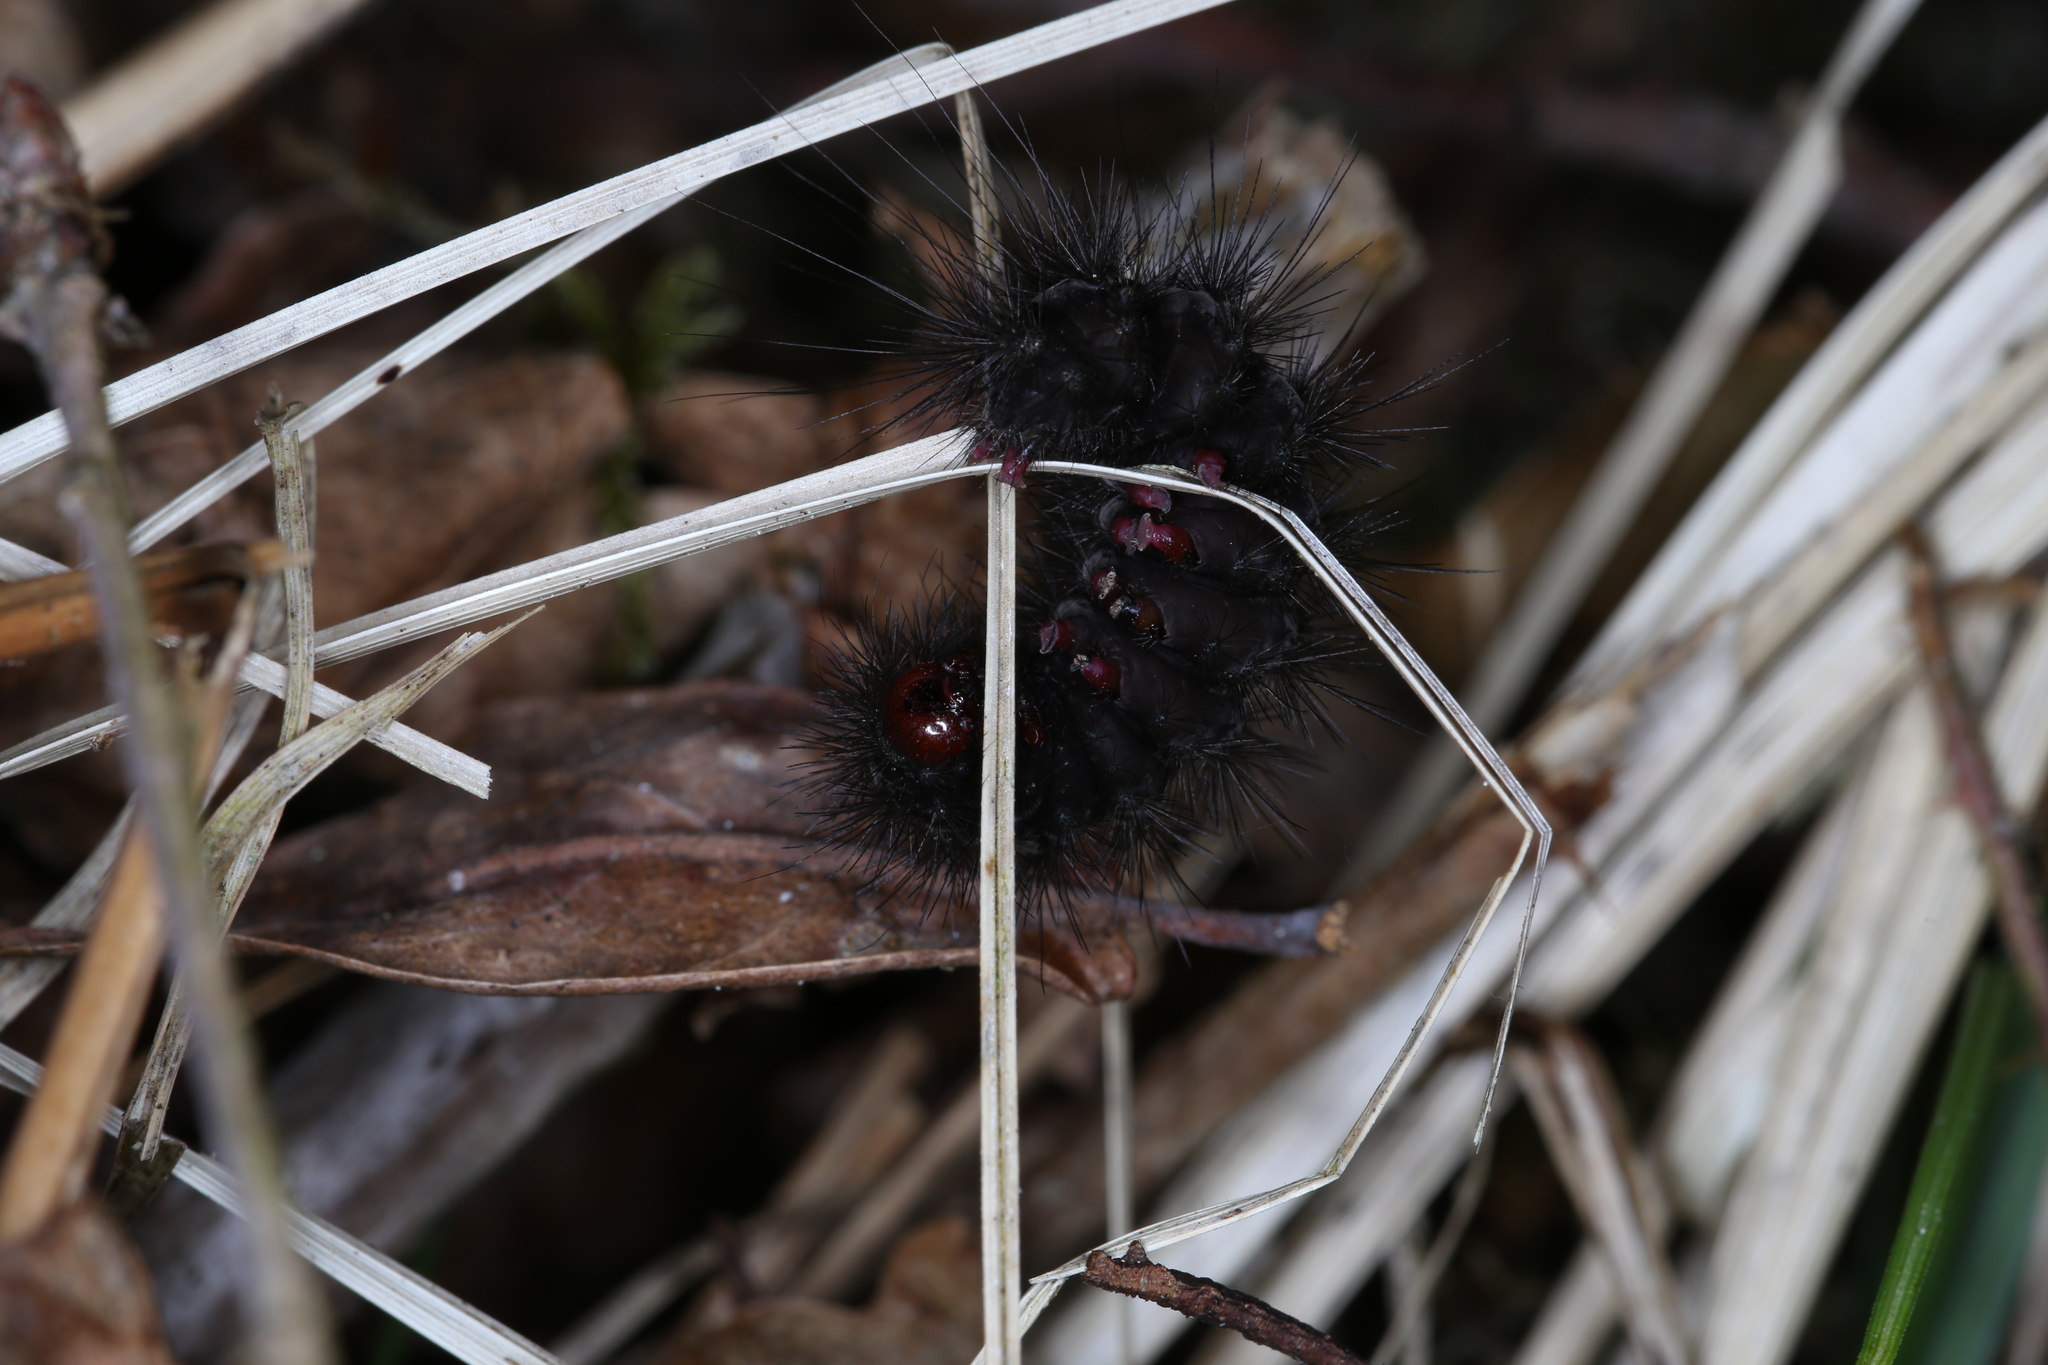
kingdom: Animalia
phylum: Arthropoda
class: Insecta
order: Lepidoptera
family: Erebidae
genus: Epicallia
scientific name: Epicallia villica
